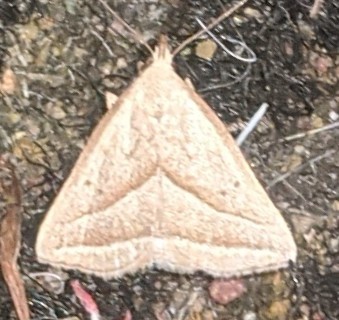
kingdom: Animalia
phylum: Arthropoda
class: Insecta
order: Lepidoptera
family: Erebidae
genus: Macrochilo
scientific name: Macrochilo absorptalis
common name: Slant-lined owlet
